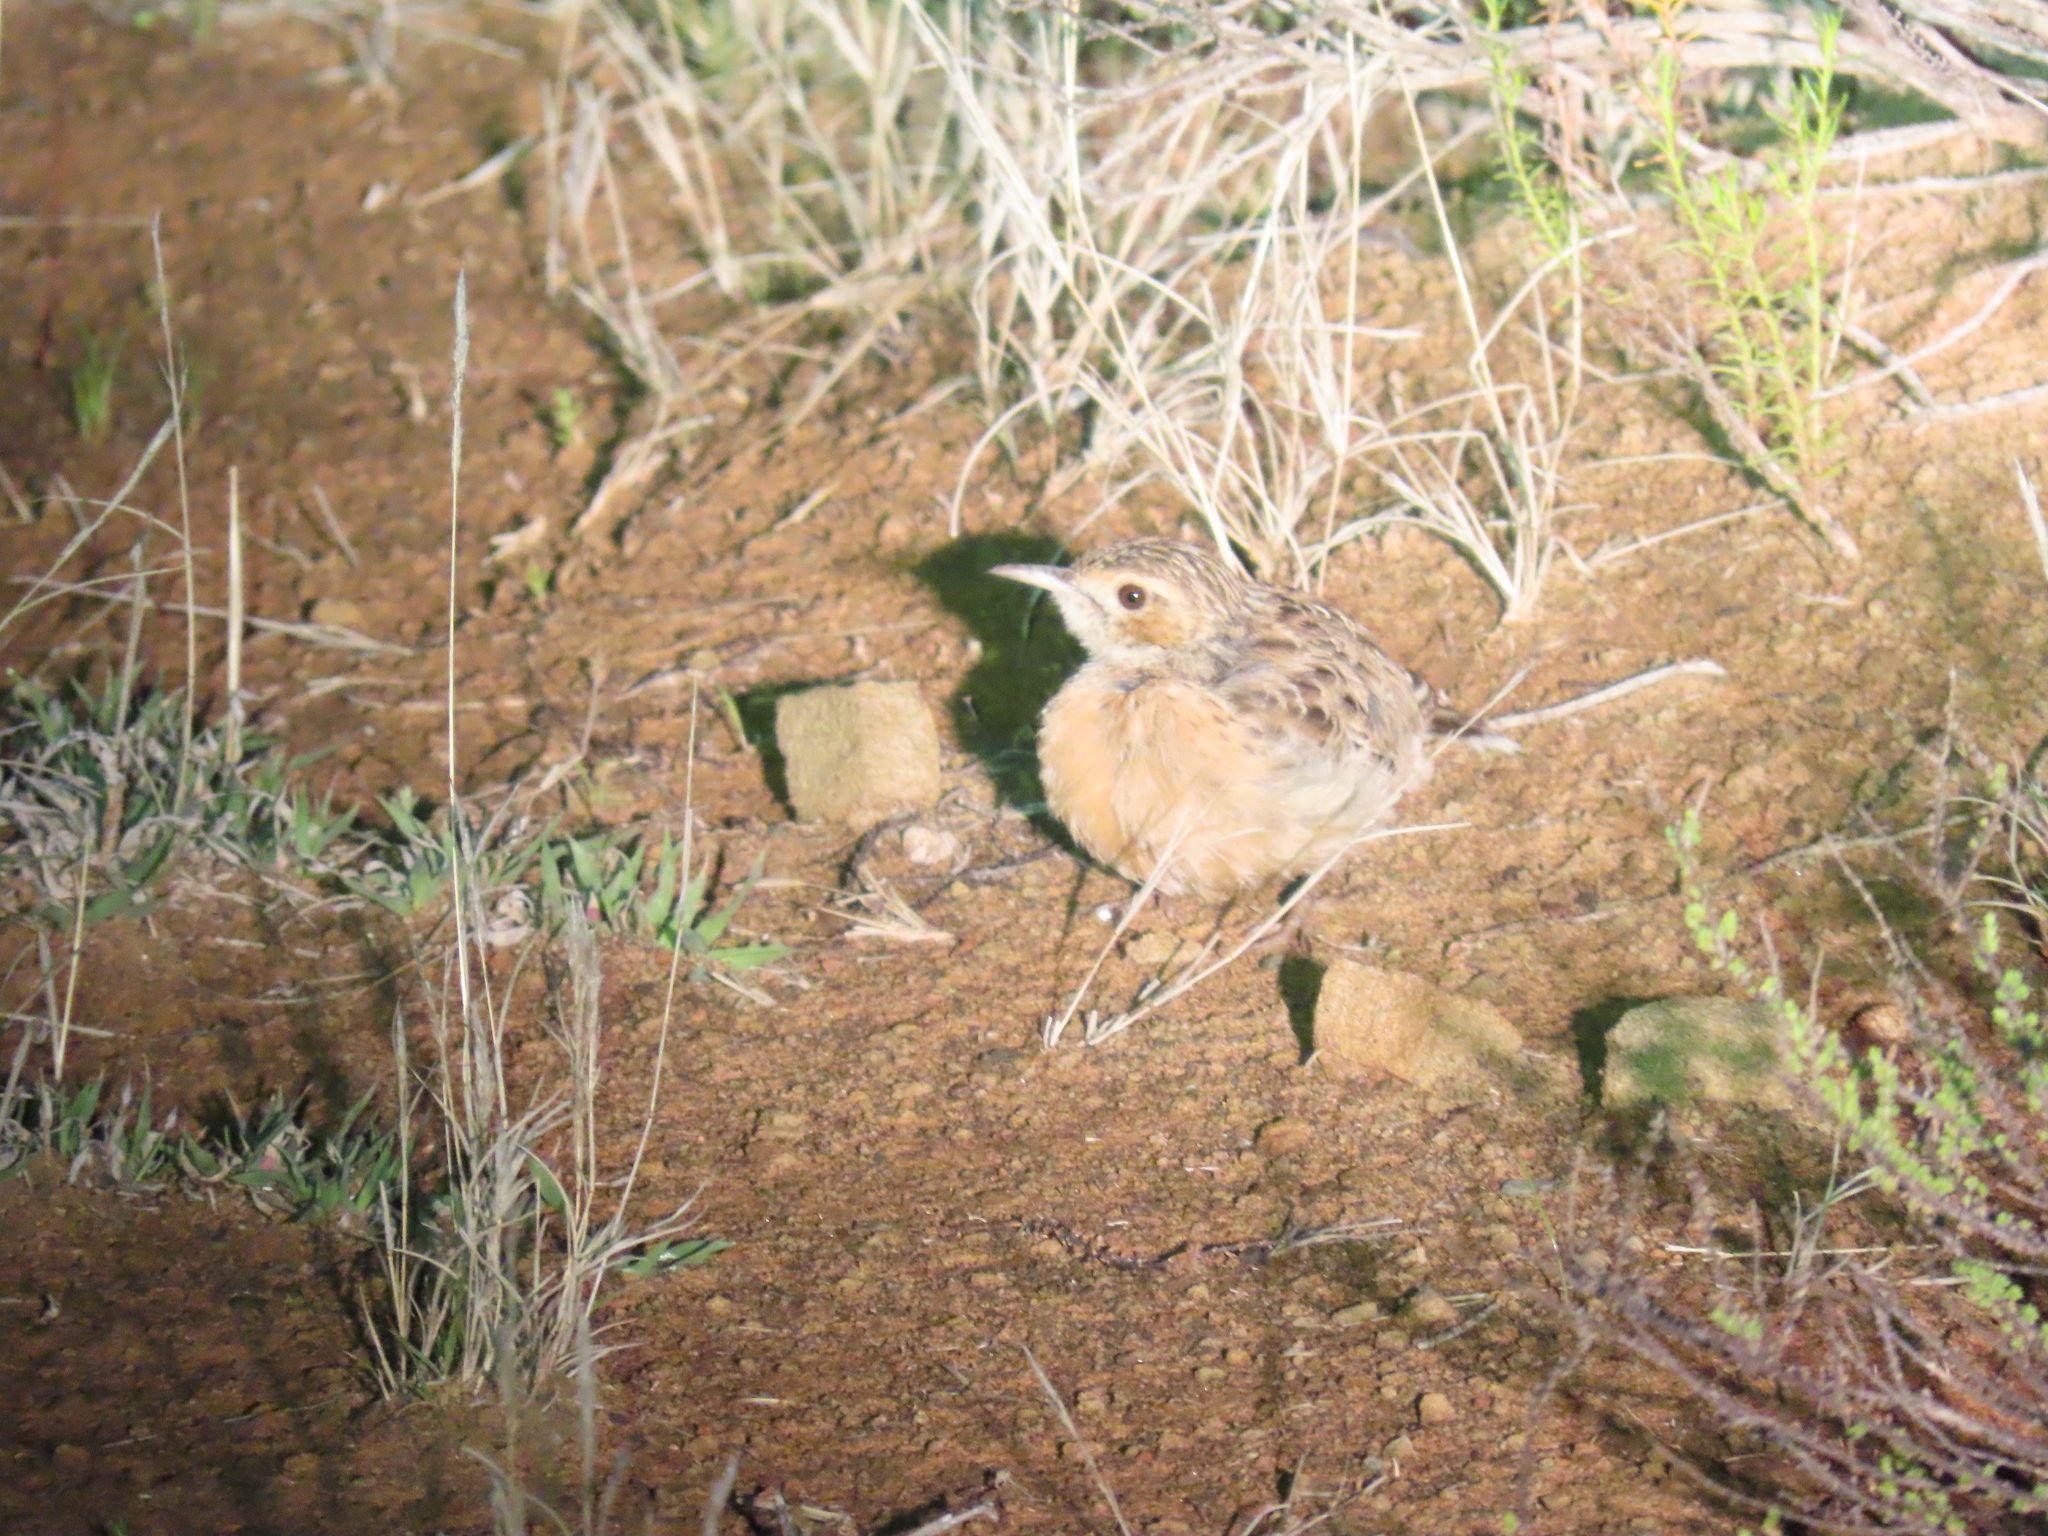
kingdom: Animalia
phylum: Chordata
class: Aves
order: Passeriformes
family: Alaudidae
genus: Chersomanes
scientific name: Chersomanes albofasciata
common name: Spike-heeled lark
